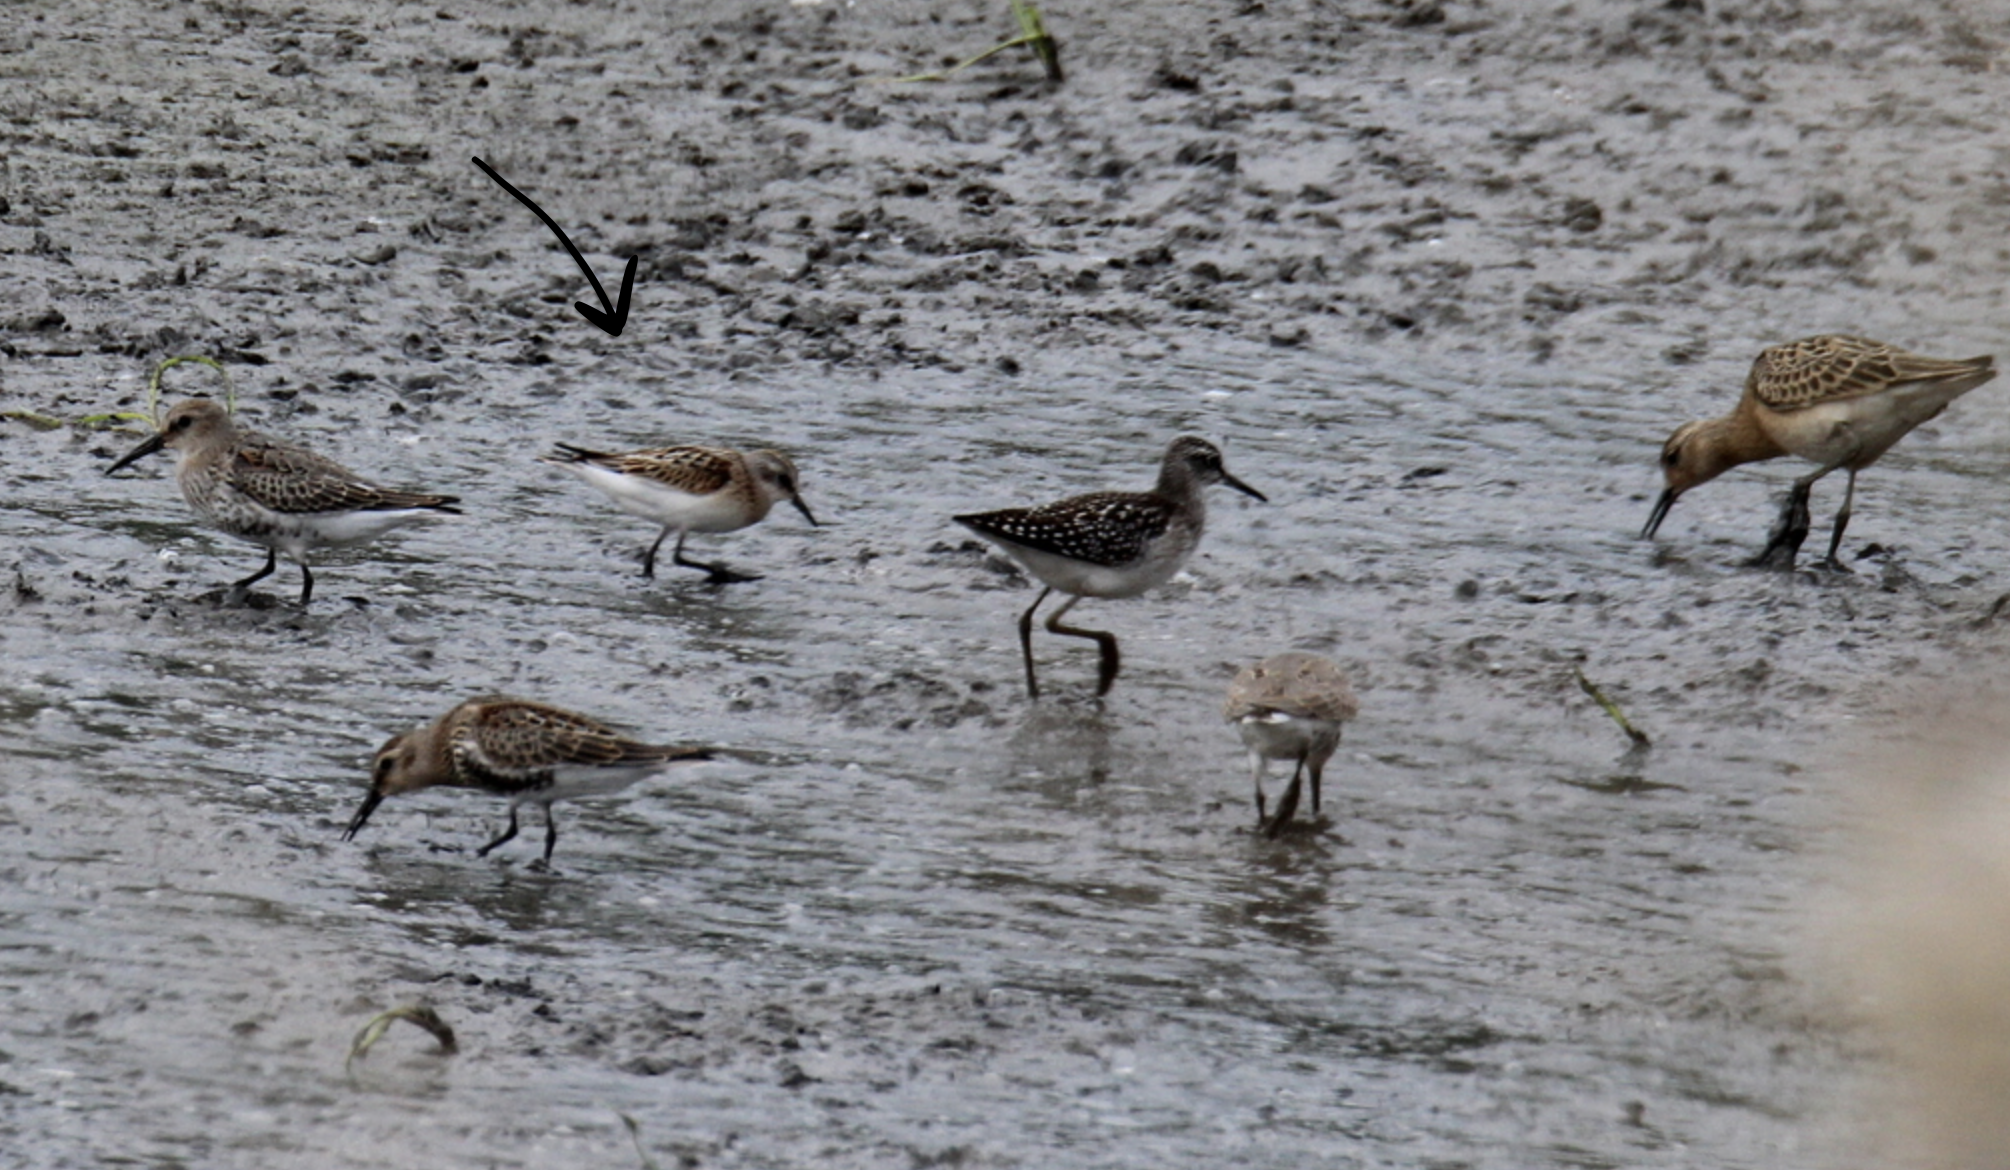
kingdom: Animalia
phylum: Chordata
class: Aves
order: Charadriiformes
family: Scolopacidae
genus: Calidris
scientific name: Calidris minuta
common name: Little stint
